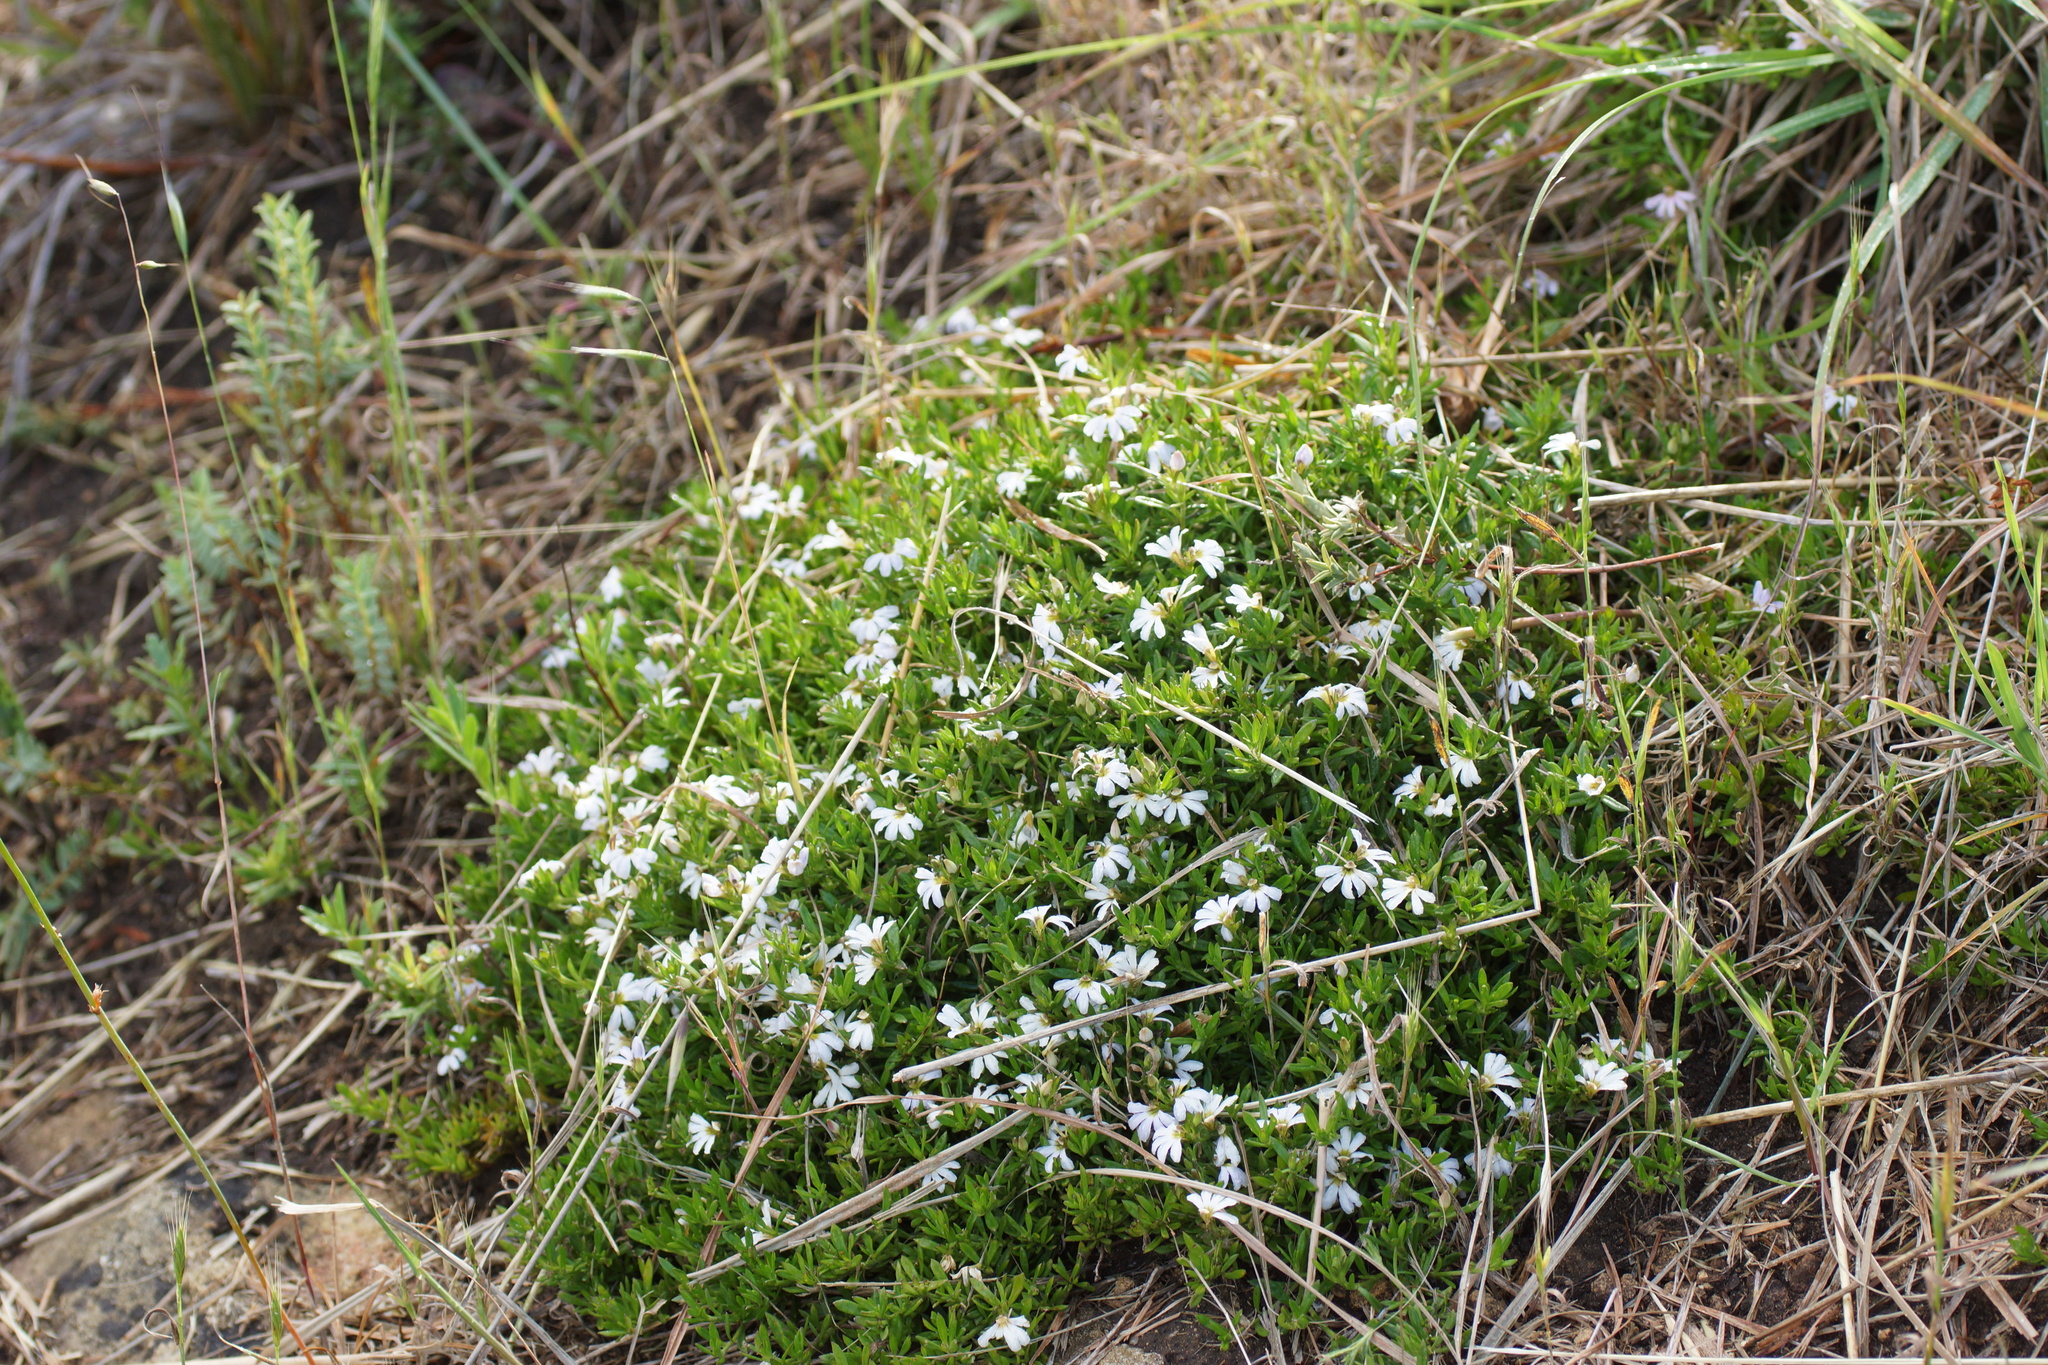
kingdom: Plantae
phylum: Tracheophyta
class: Magnoliopsida
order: Asterales
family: Goodeniaceae
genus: Scaevola
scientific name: Scaevola albida
